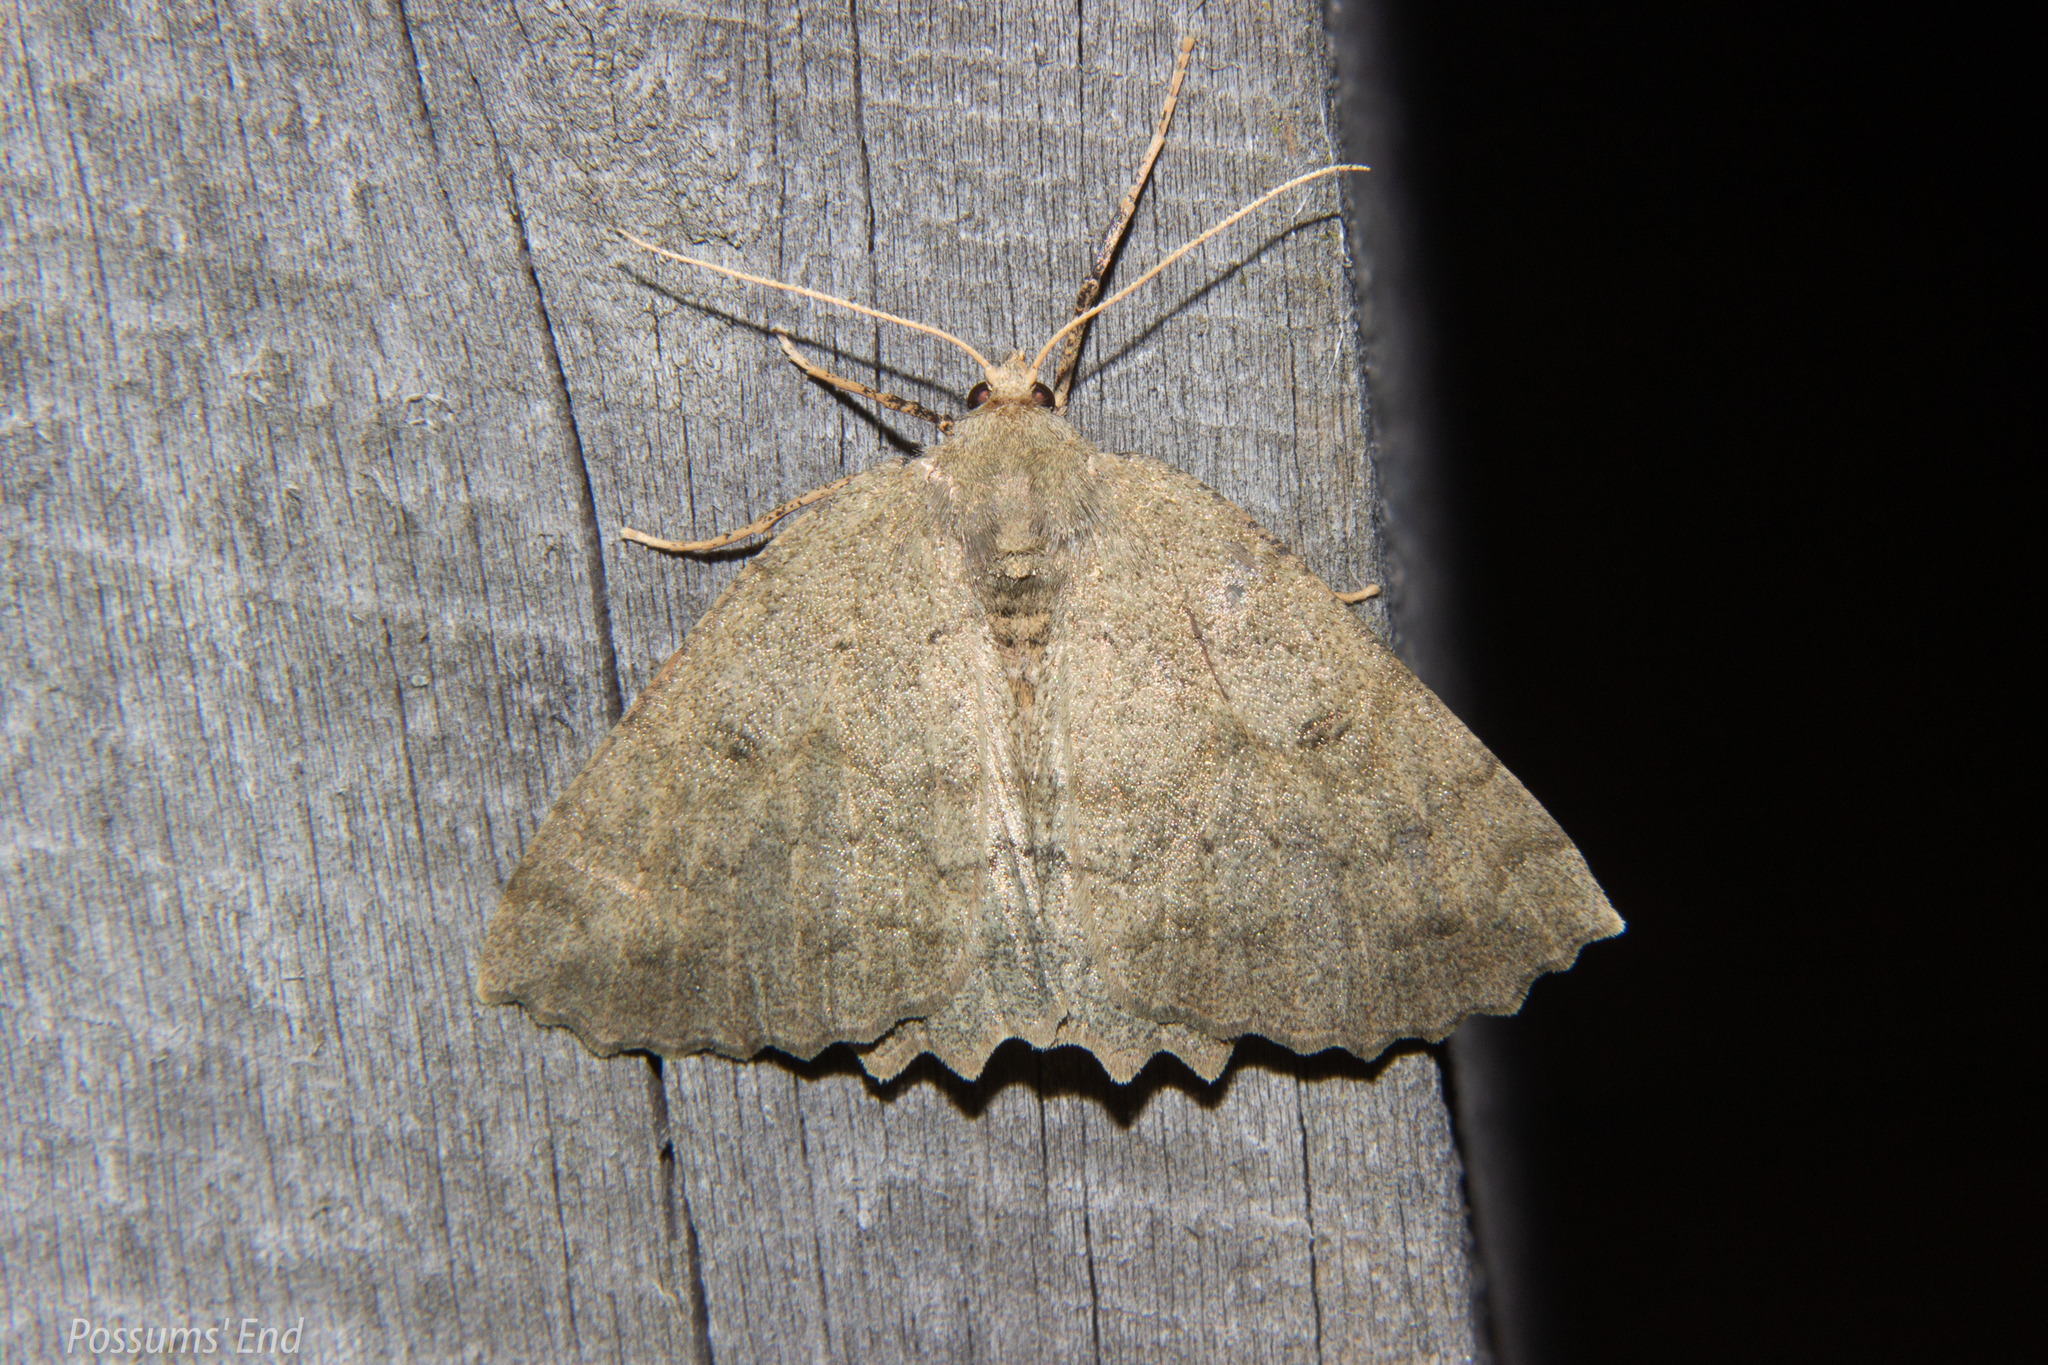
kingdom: Animalia
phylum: Arthropoda
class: Insecta
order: Lepidoptera
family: Geometridae
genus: Cleora
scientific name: Cleora scriptaria
